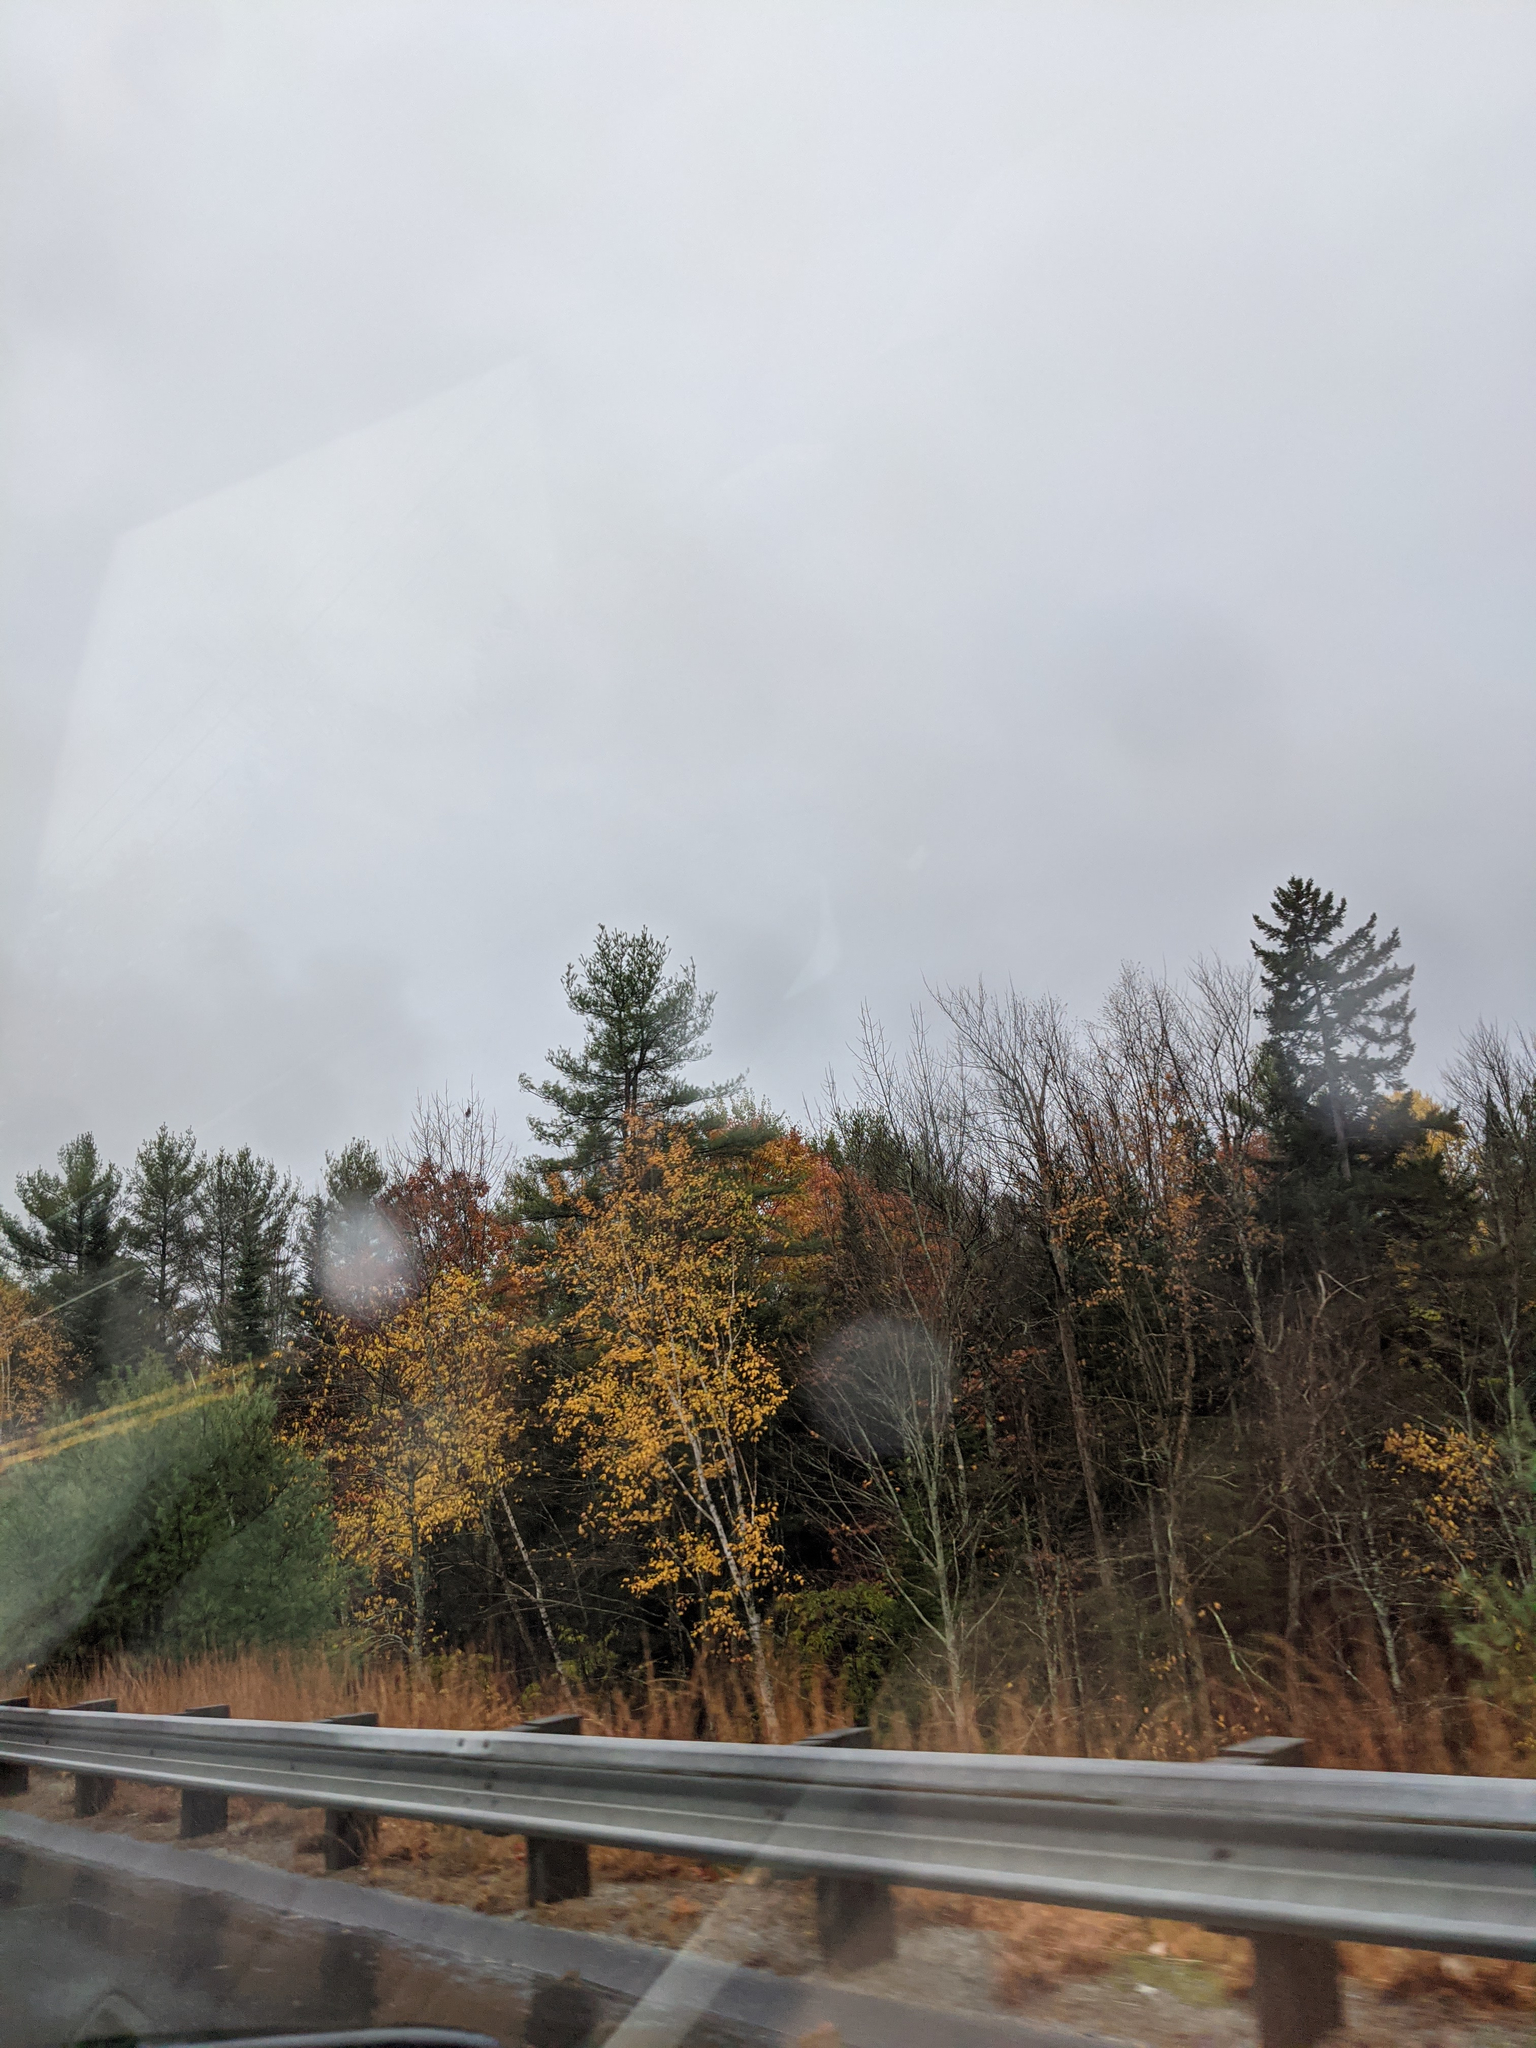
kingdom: Plantae
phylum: Tracheophyta
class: Pinopsida
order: Pinales
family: Pinaceae
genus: Pinus
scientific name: Pinus strobus
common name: Weymouth pine
